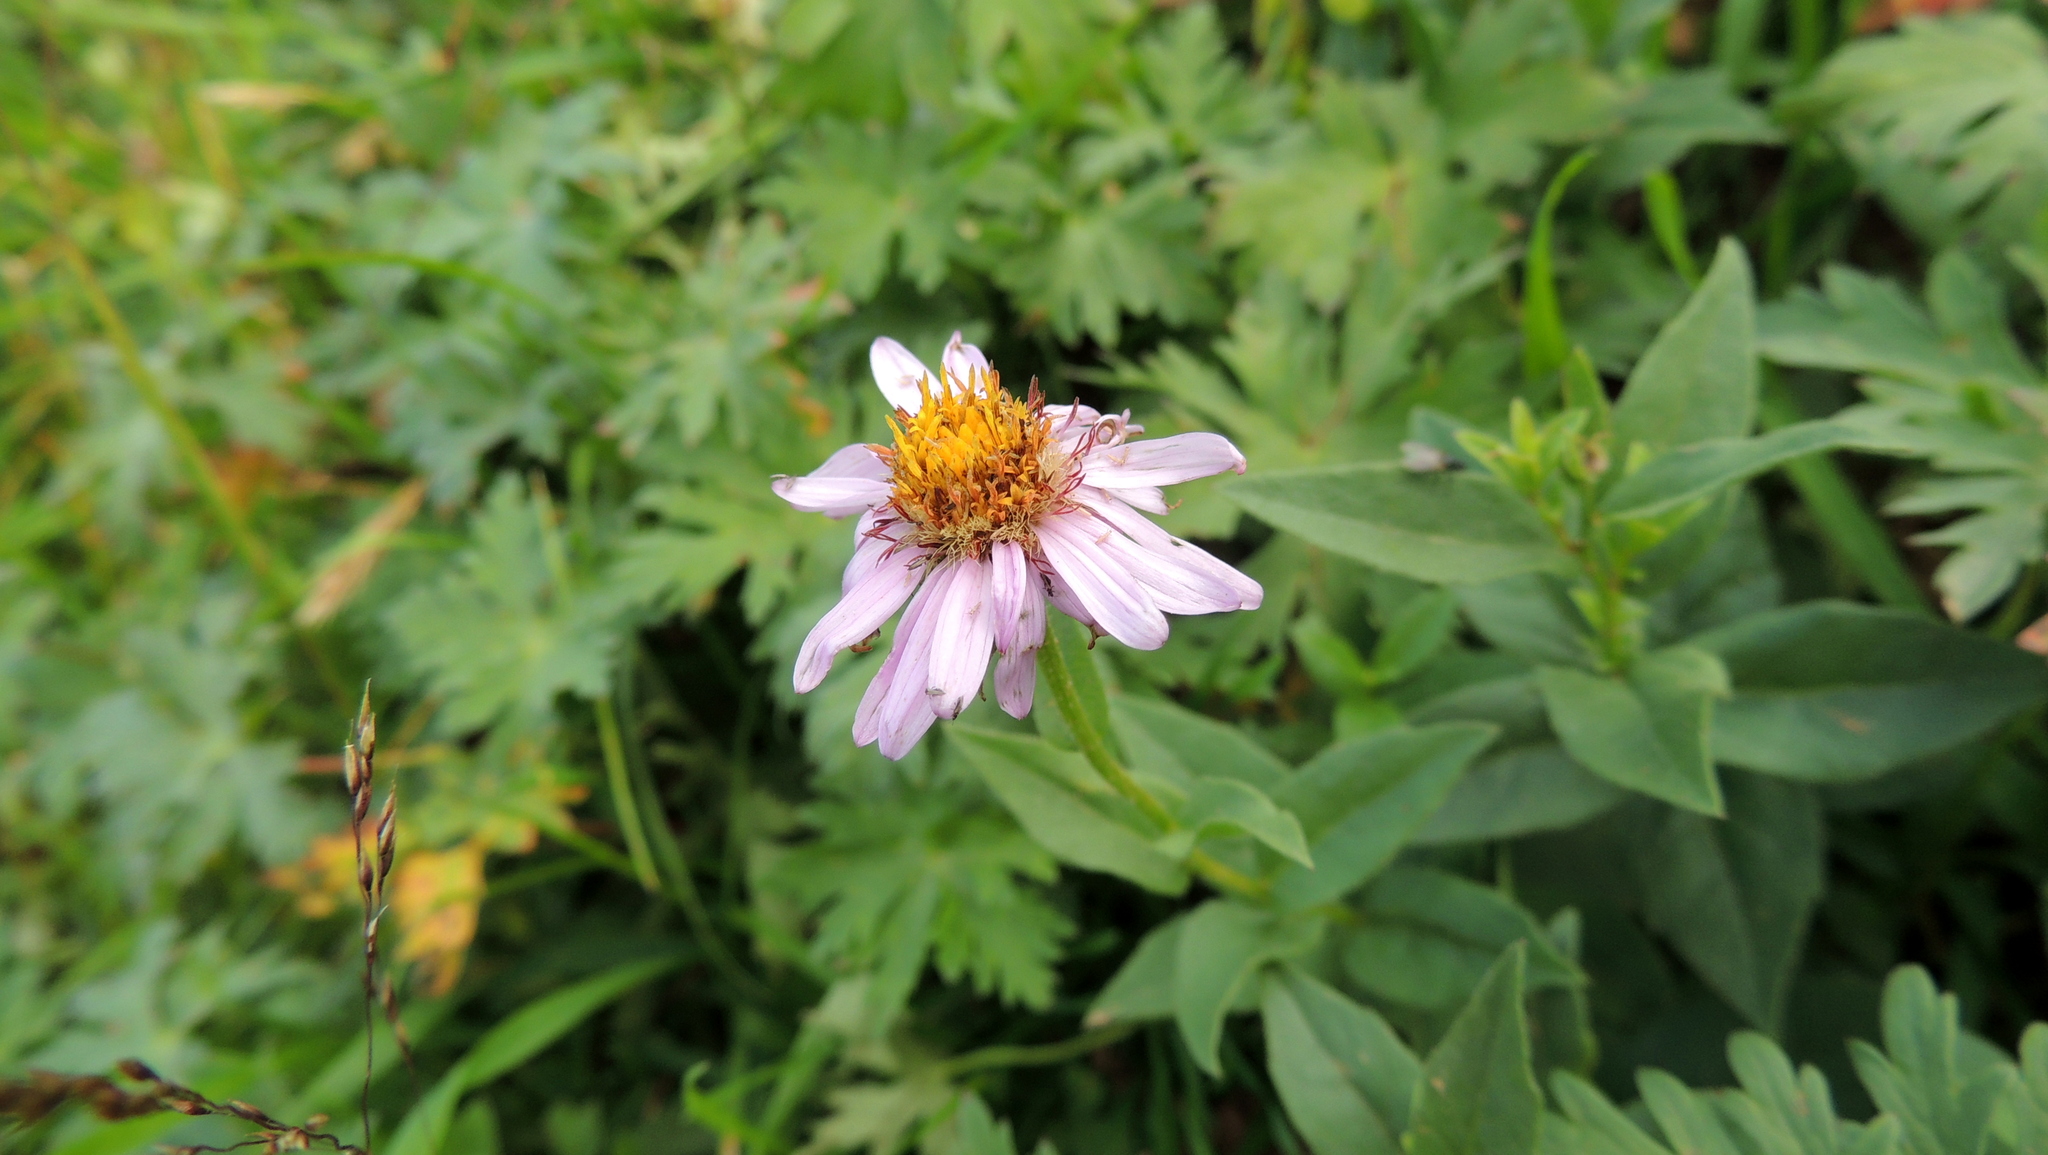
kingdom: Plantae
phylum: Tracheophyta
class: Magnoliopsida
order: Asterales
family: Asteraceae
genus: Kemulariella
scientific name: Kemulariella caucasica
